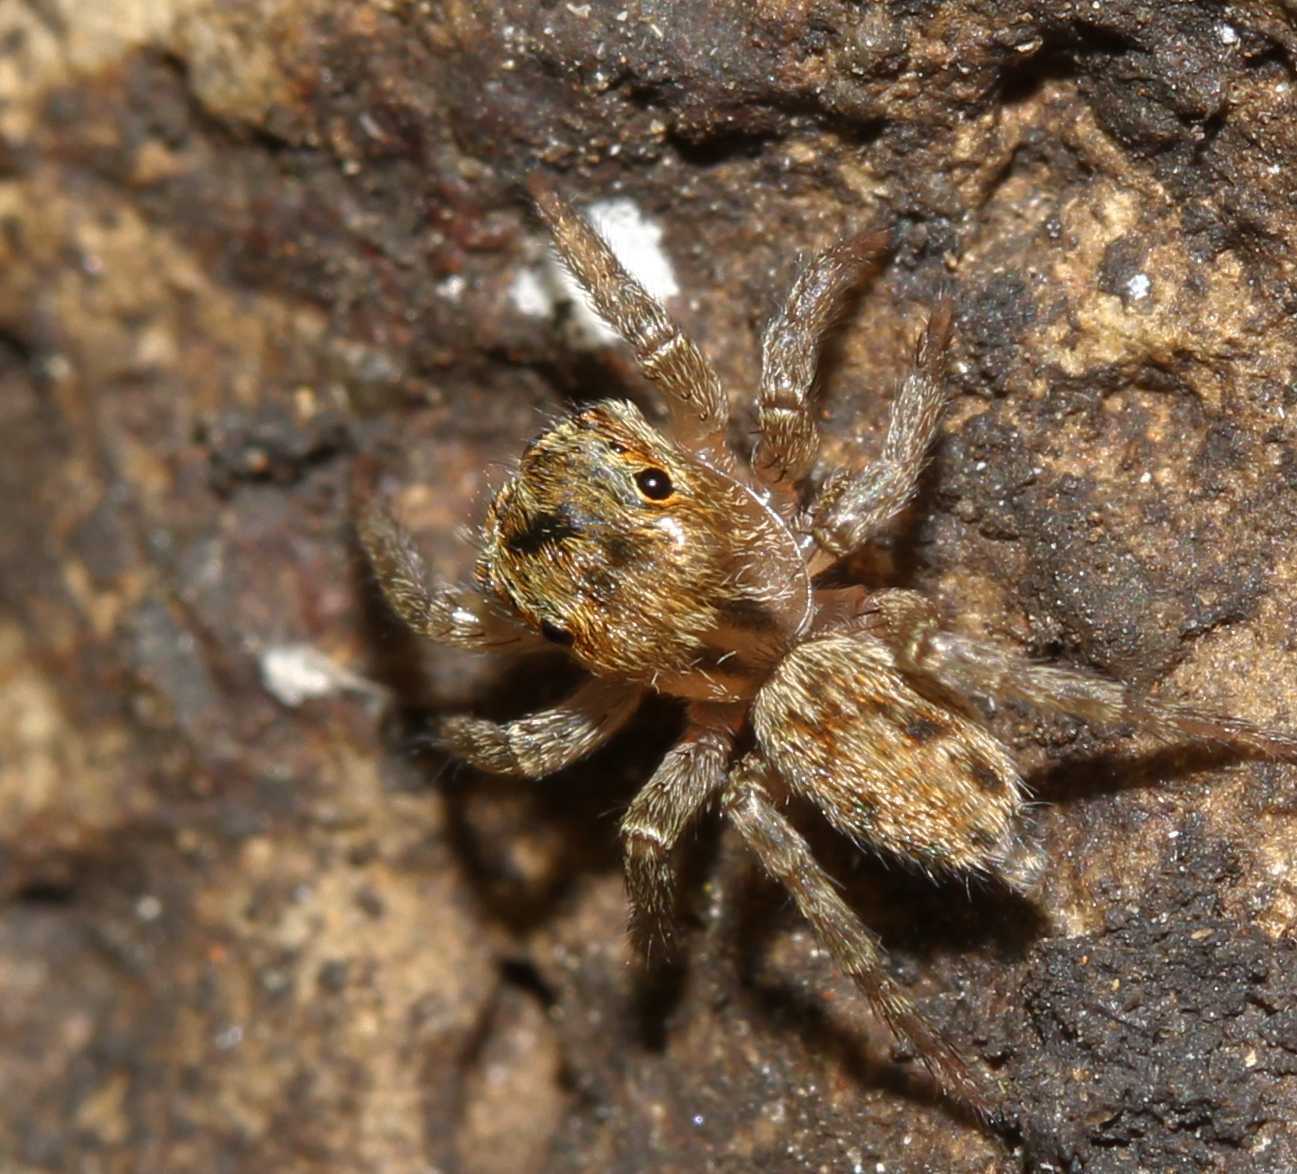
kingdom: Animalia
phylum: Arthropoda
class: Arachnida
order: Araneae
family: Salticidae
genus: Hasarius
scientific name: Hasarius adansoni
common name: Jumping spider
